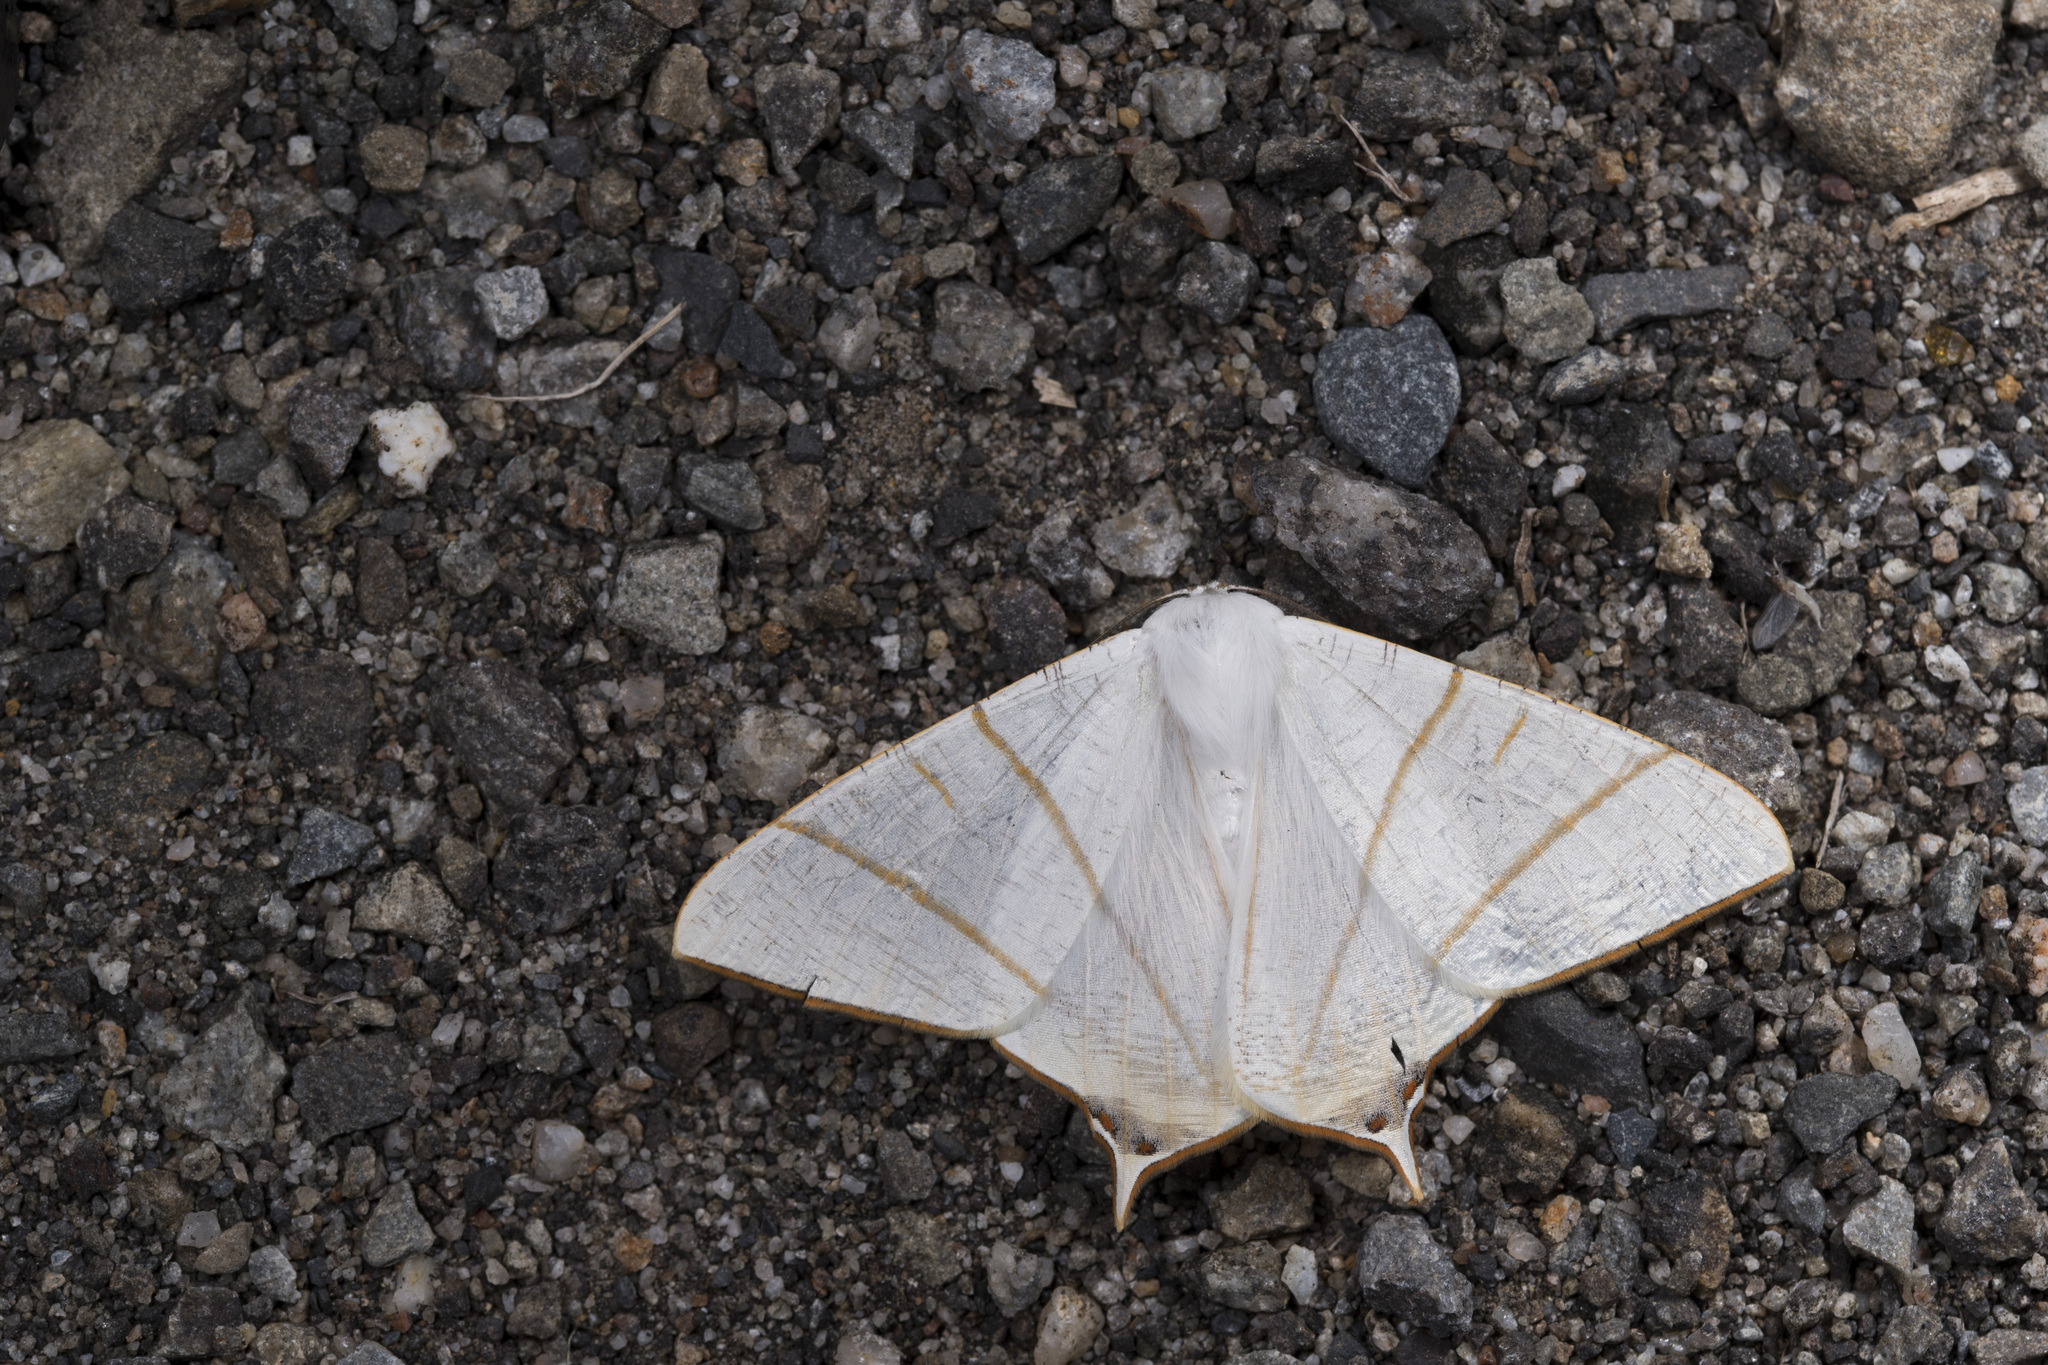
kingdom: Animalia
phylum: Arthropoda
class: Insecta
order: Lepidoptera
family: Geometridae
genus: Ourapteryx
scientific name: Ourapteryx changi
